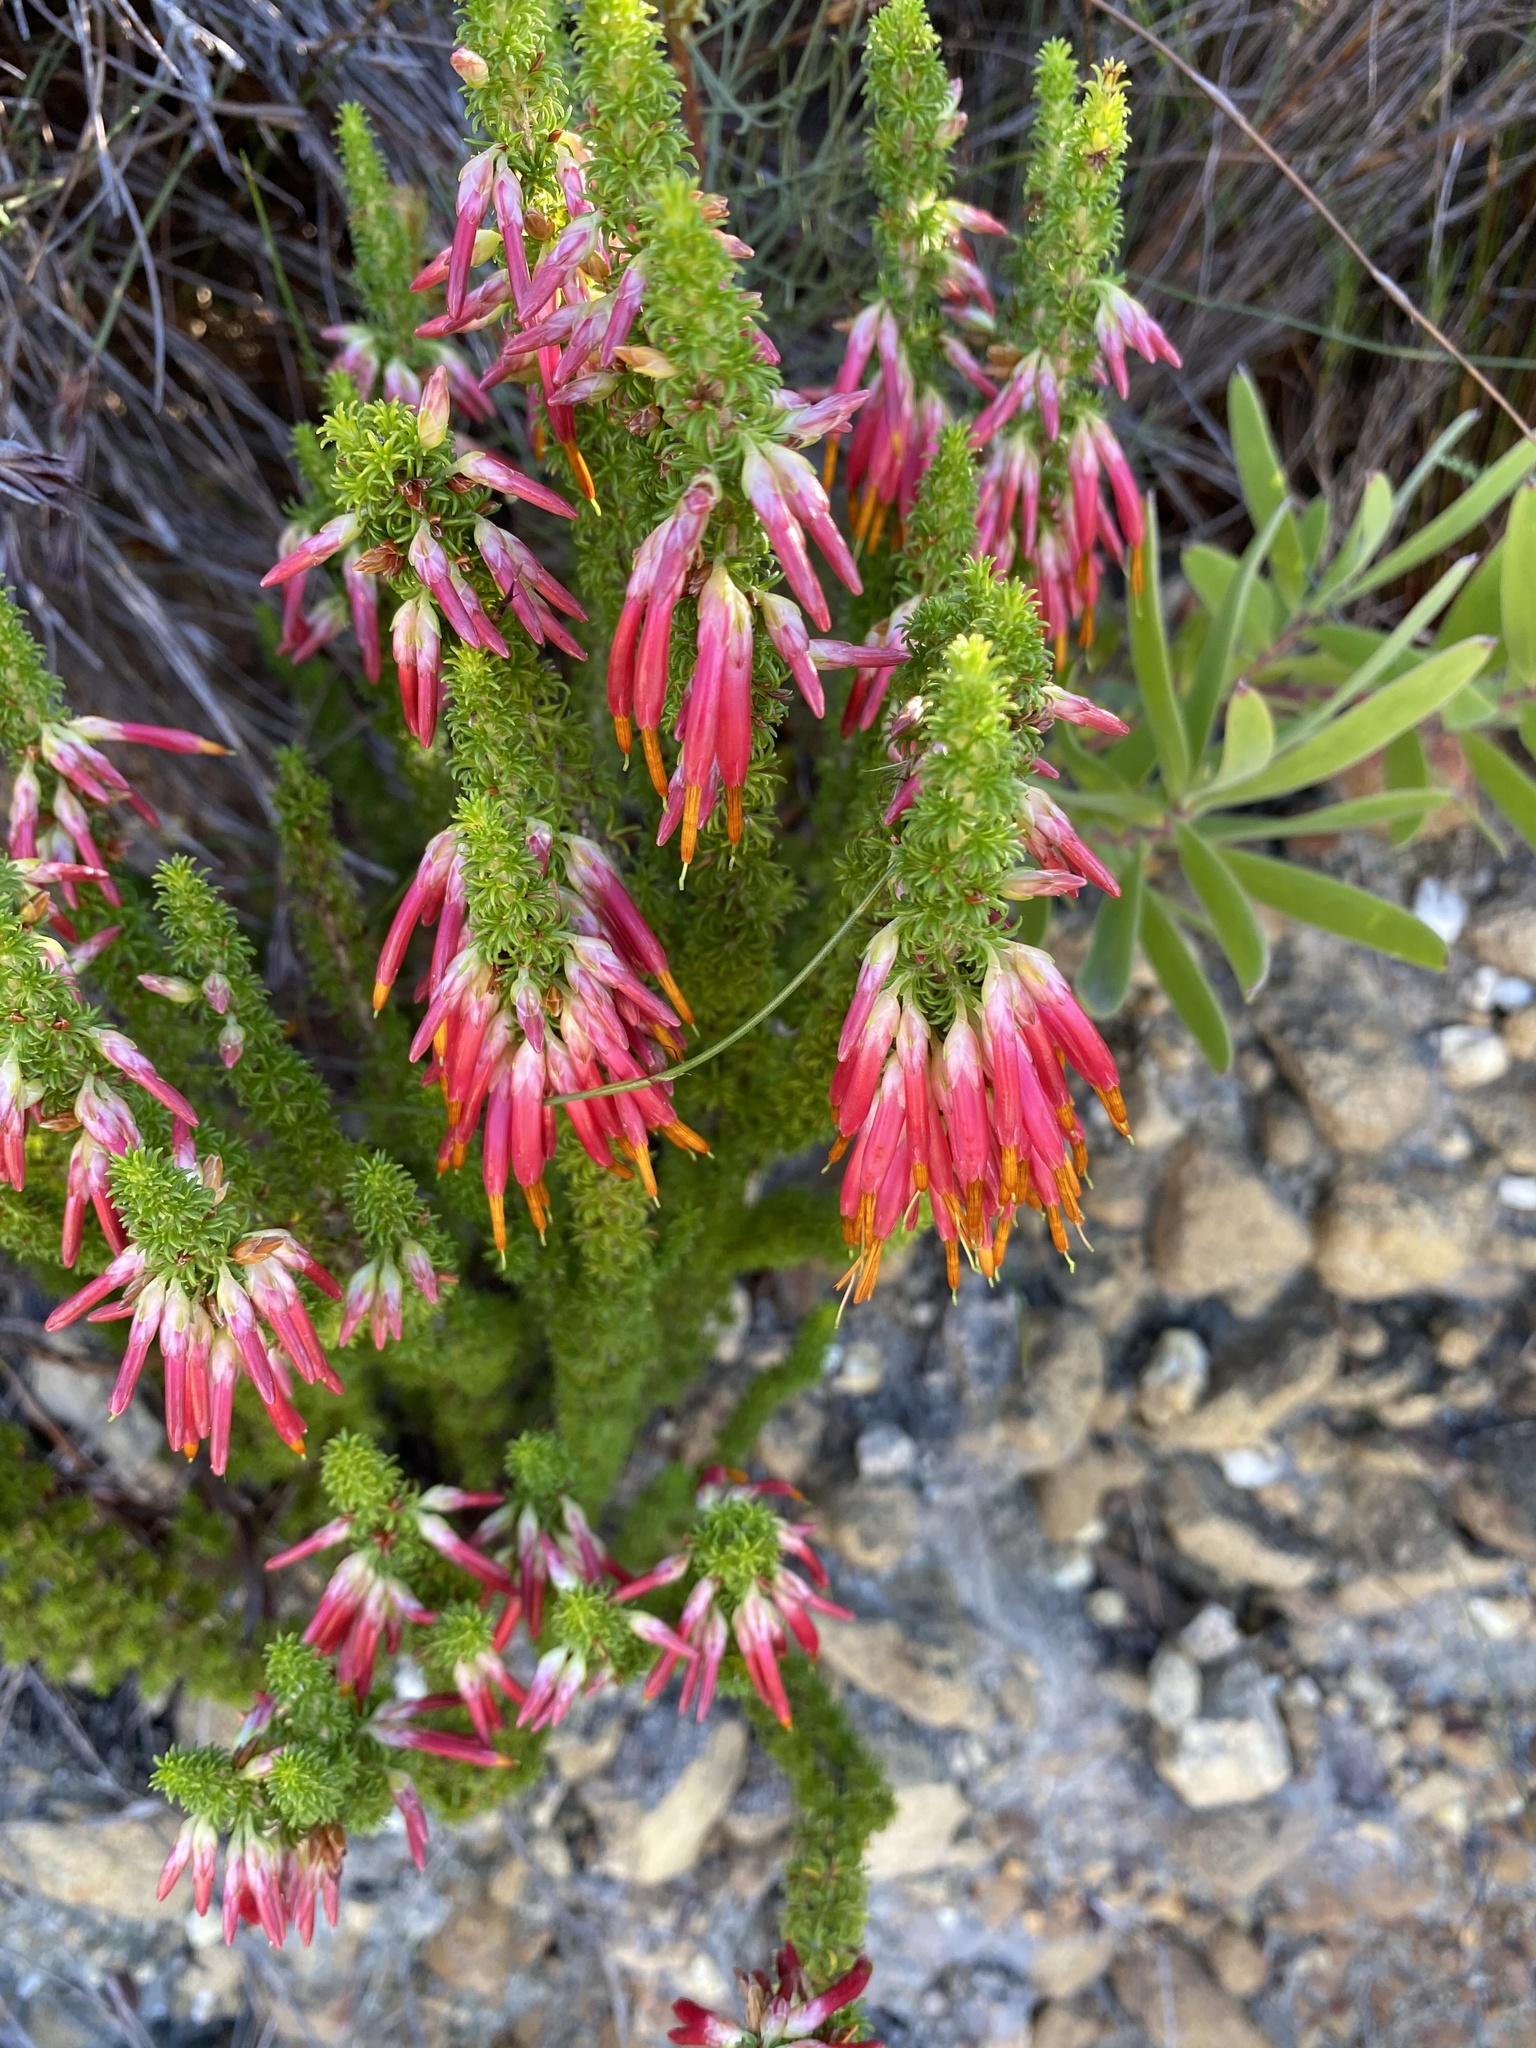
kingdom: Plantae
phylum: Tracheophyta
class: Magnoliopsida
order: Ericales
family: Ericaceae
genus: Erica
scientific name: Erica coccinea
